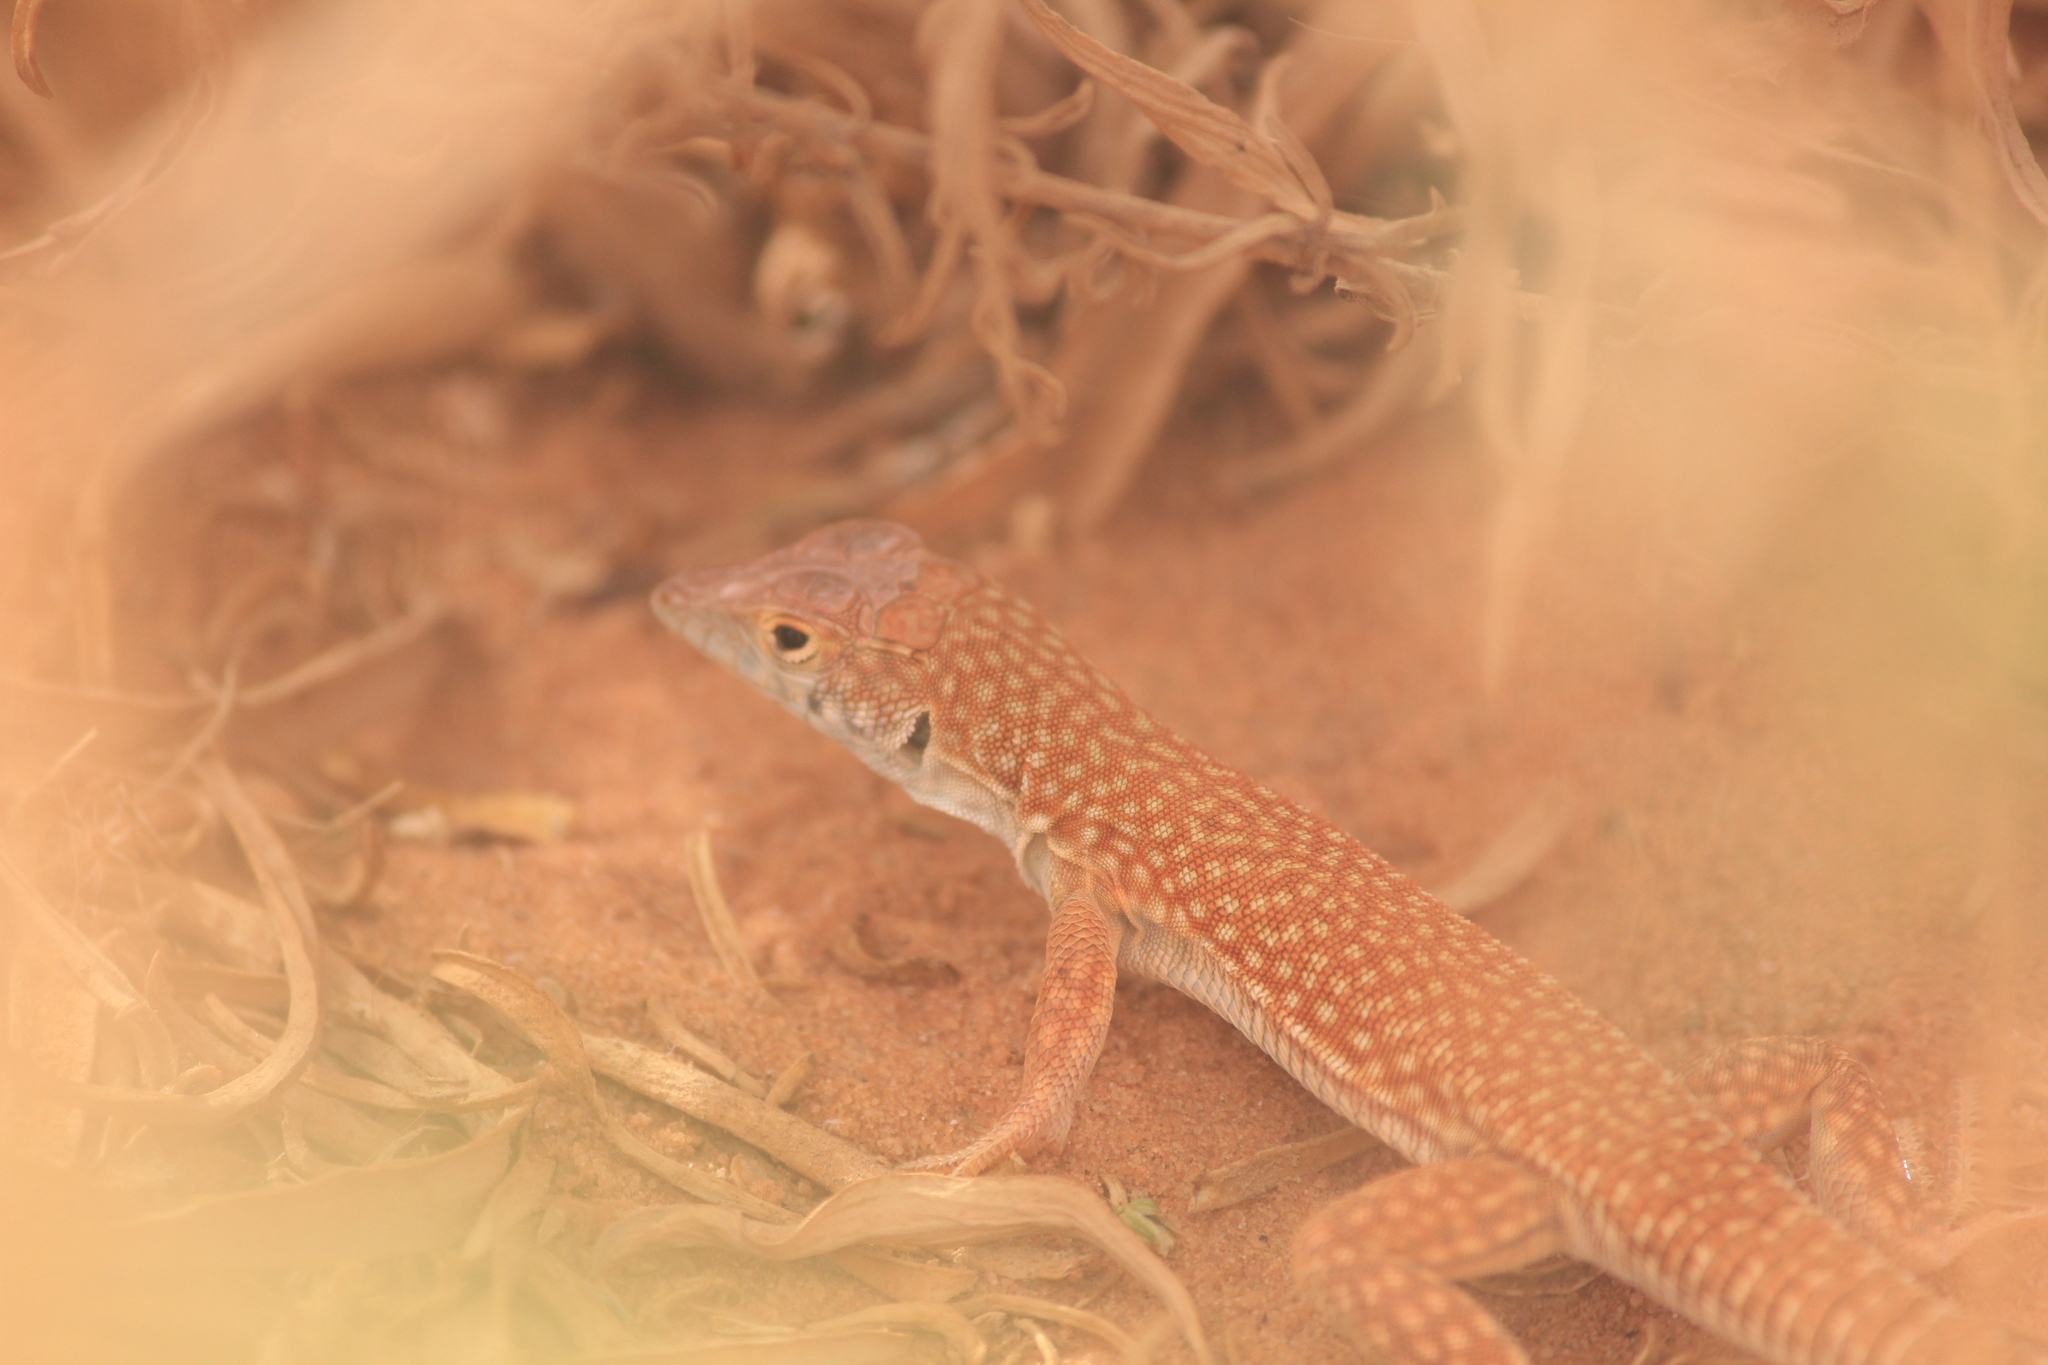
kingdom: Animalia
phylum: Chordata
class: Squamata
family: Lacertidae
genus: Acanthodactylus
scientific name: Acanthodactylus schmidti
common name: Schmidt's fringe-toed lizard
